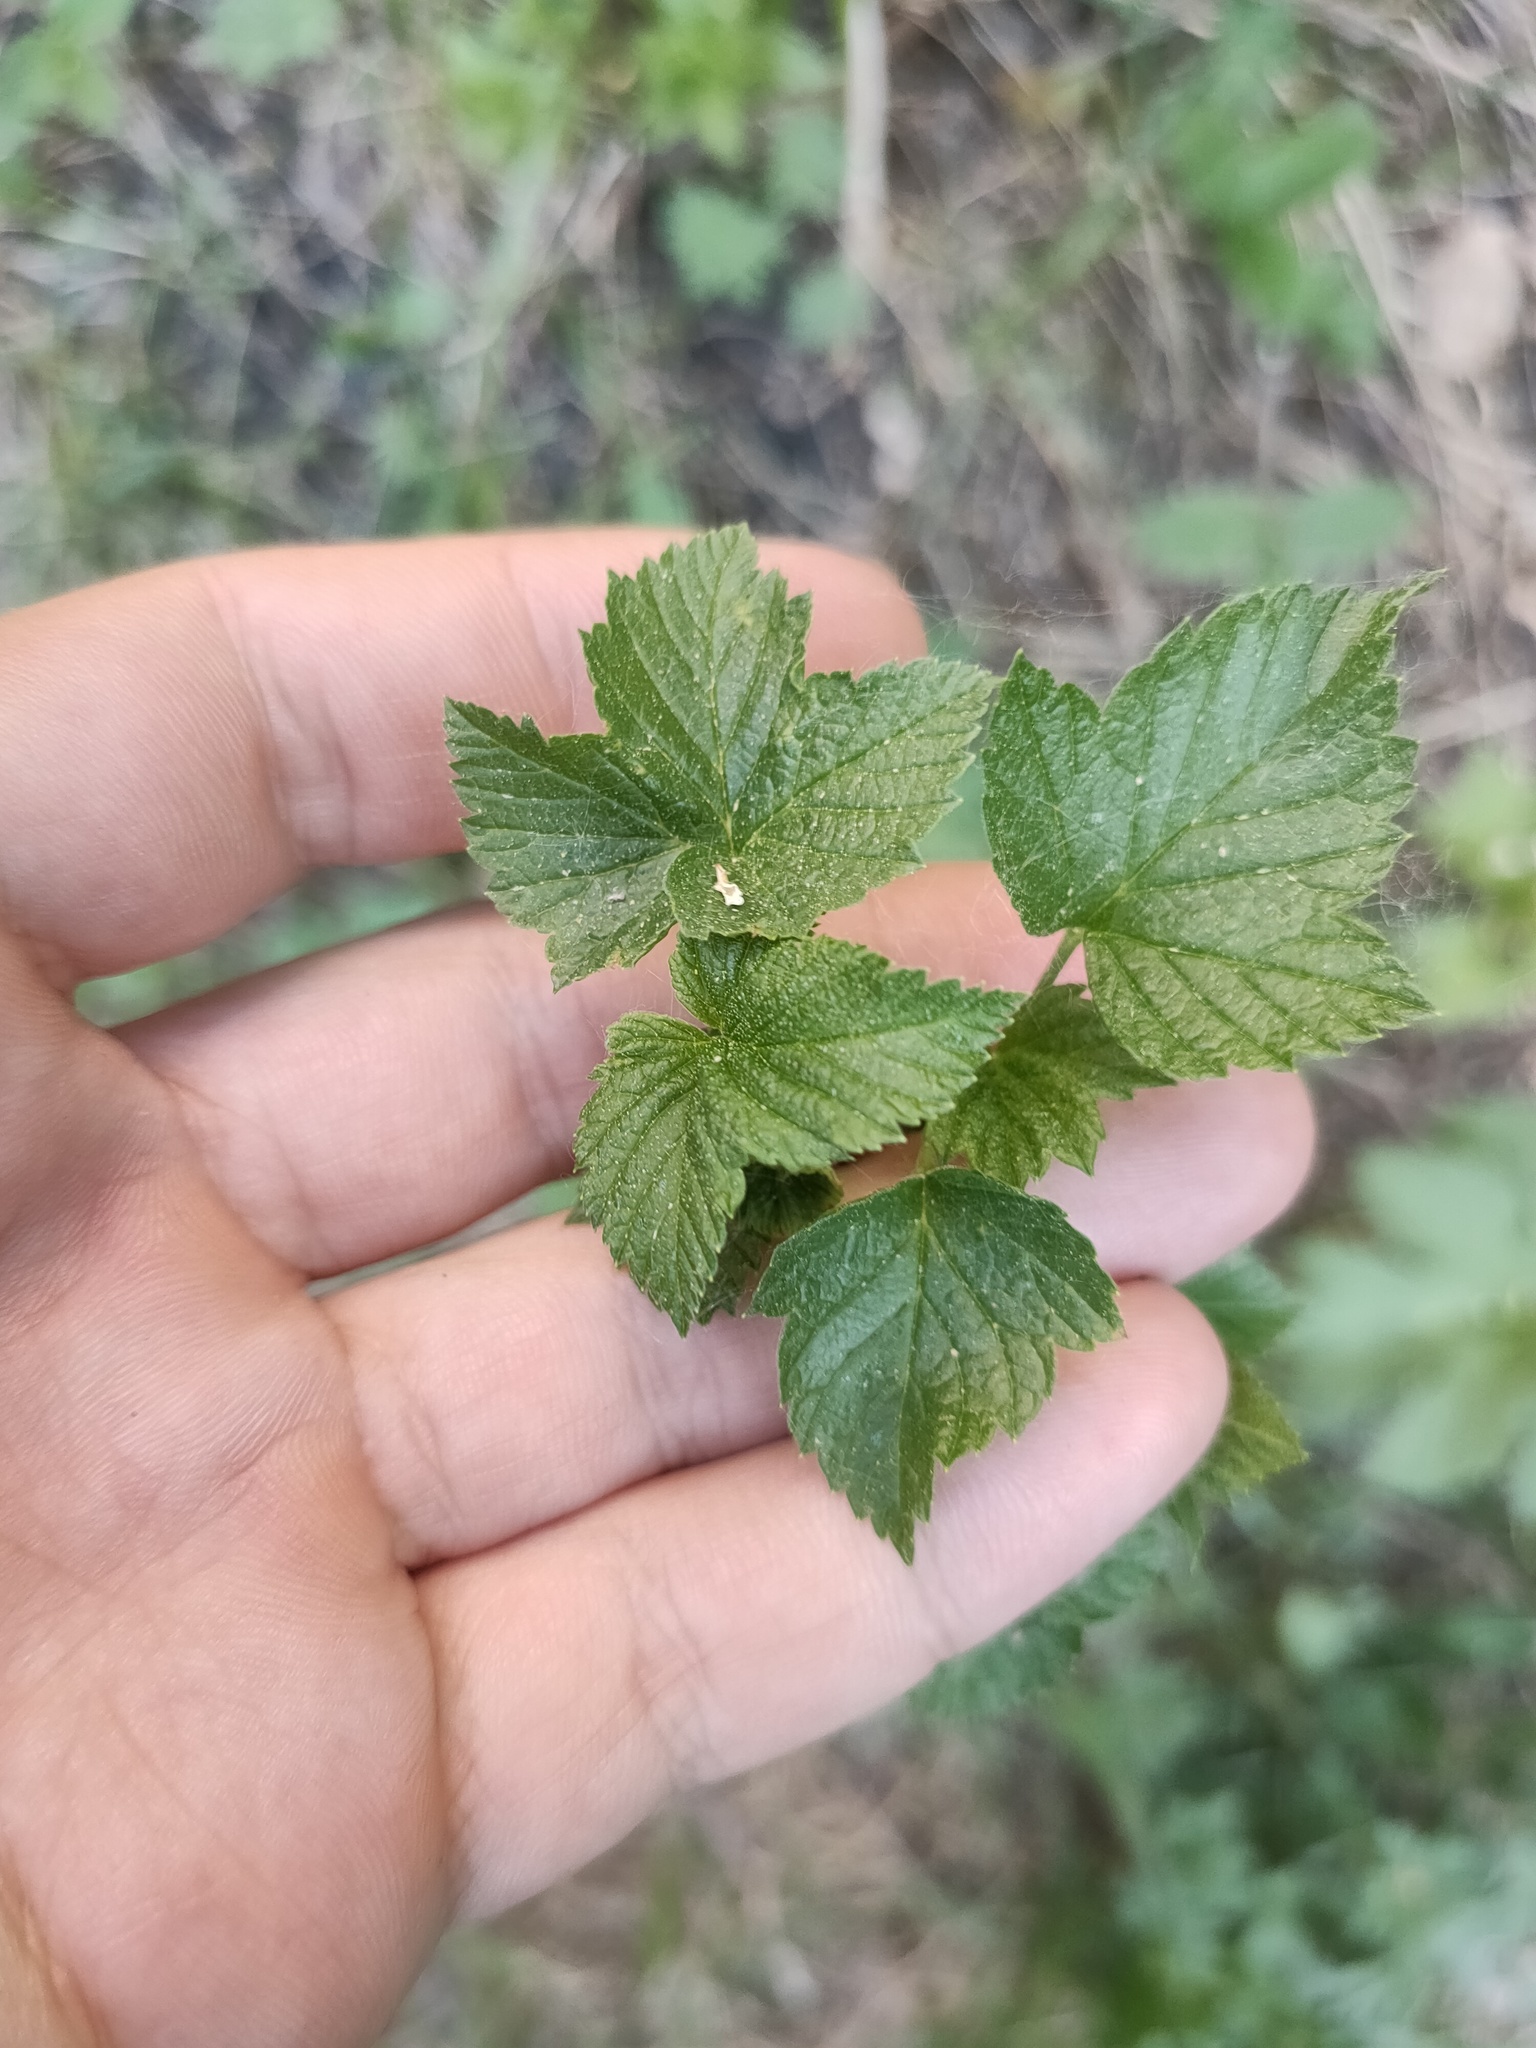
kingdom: Plantae
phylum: Tracheophyta
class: Magnoliopsida
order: Saxifragales
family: Grossulariaceae
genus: Ribes
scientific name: Ribes nigrum
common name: Black currant
